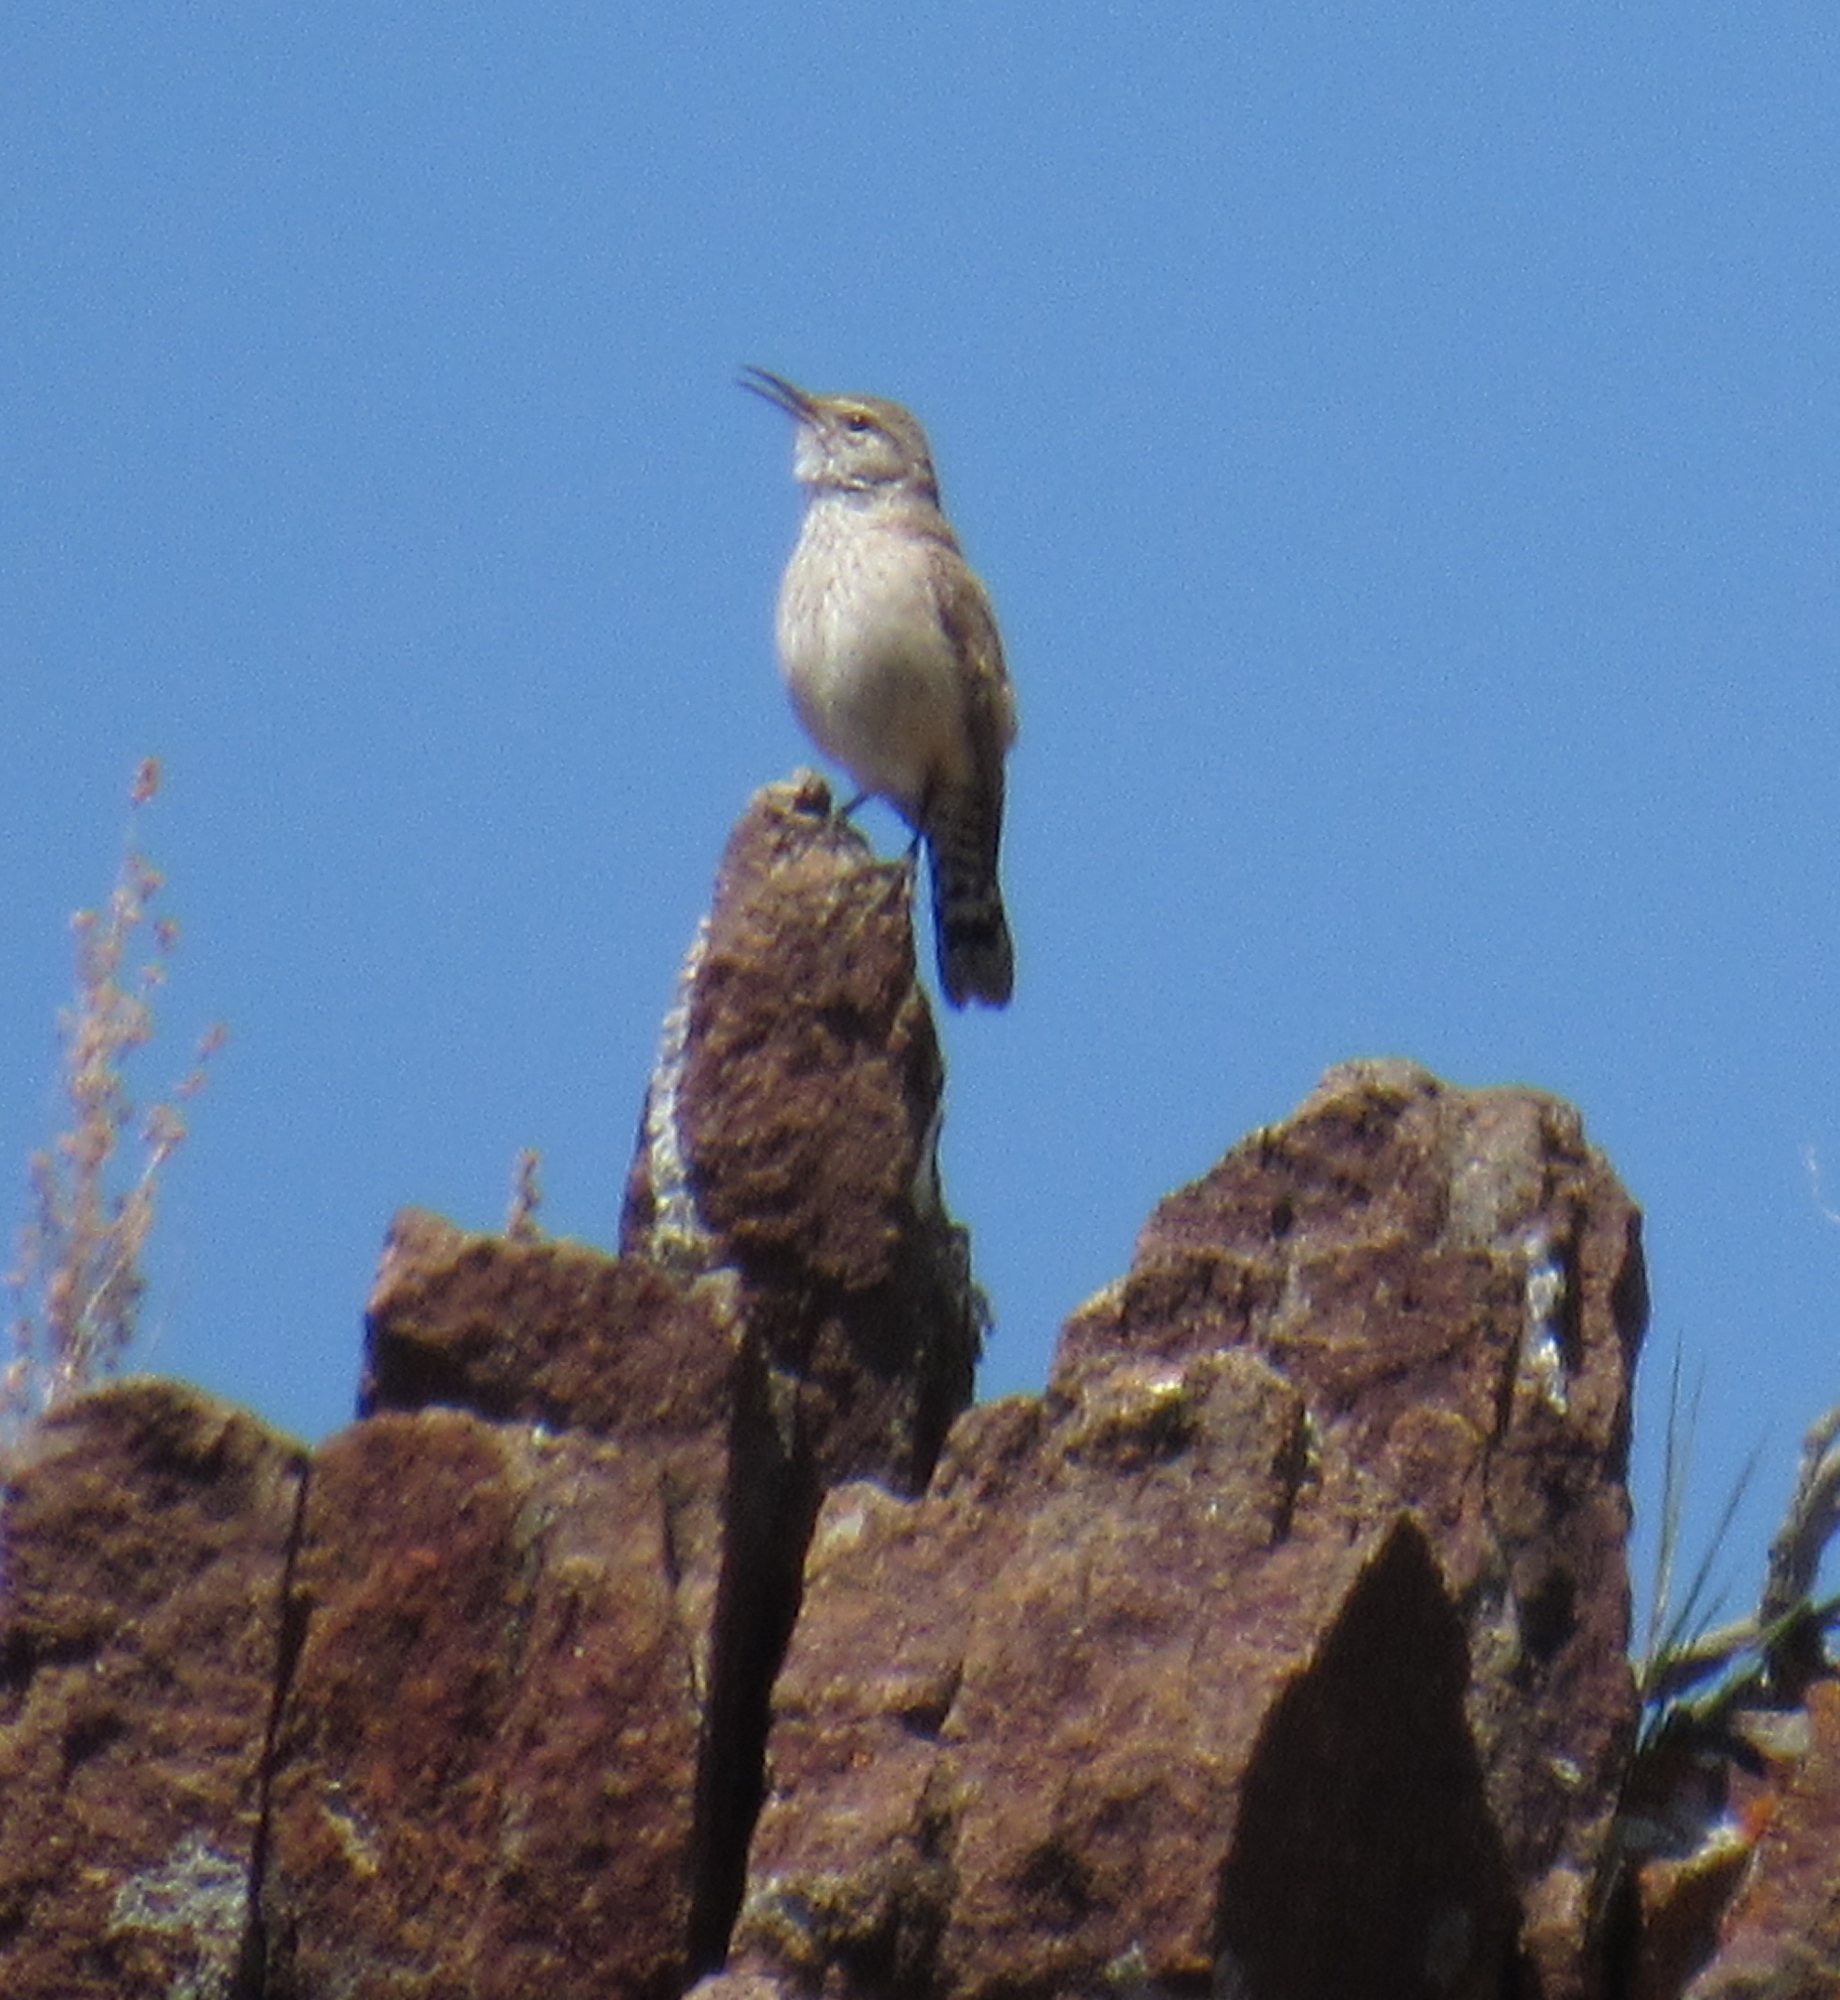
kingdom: Animalia
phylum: Chordata
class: Aves
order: Passeriformes
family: Troglodytidae
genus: Salpinctes
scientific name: Salpinctes obsoletus
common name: Rock wren
